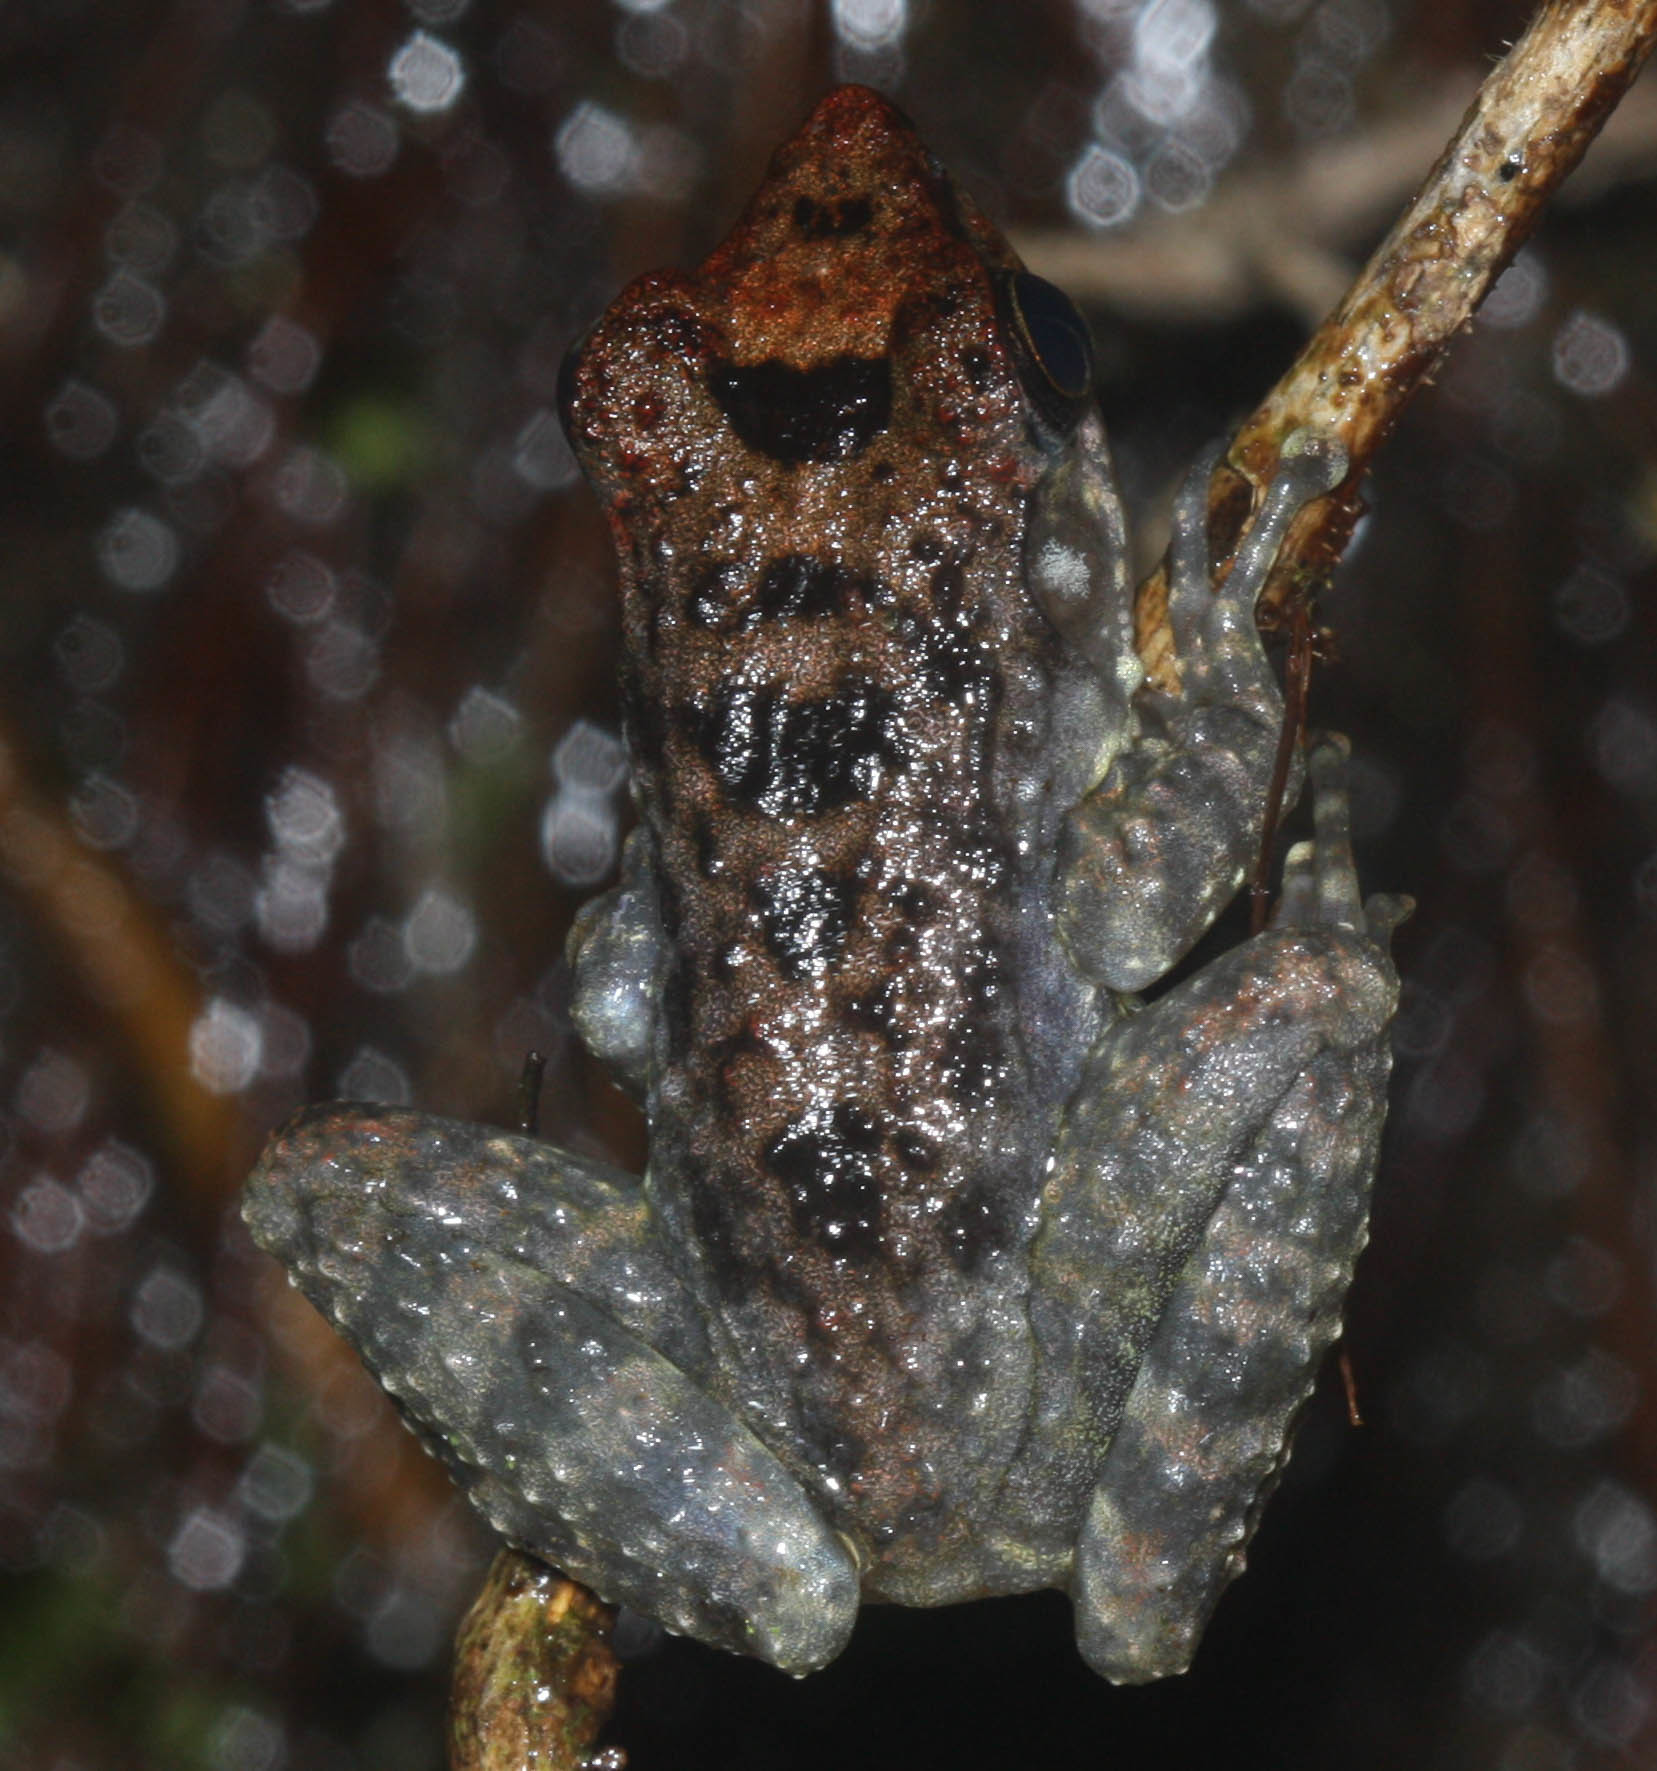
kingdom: Animalia
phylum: Chordata
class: Amphibia
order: Anura
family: Mantellidae
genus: Mantidactylus
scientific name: Mantidactylus femoralis
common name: Fort madagascar frog
